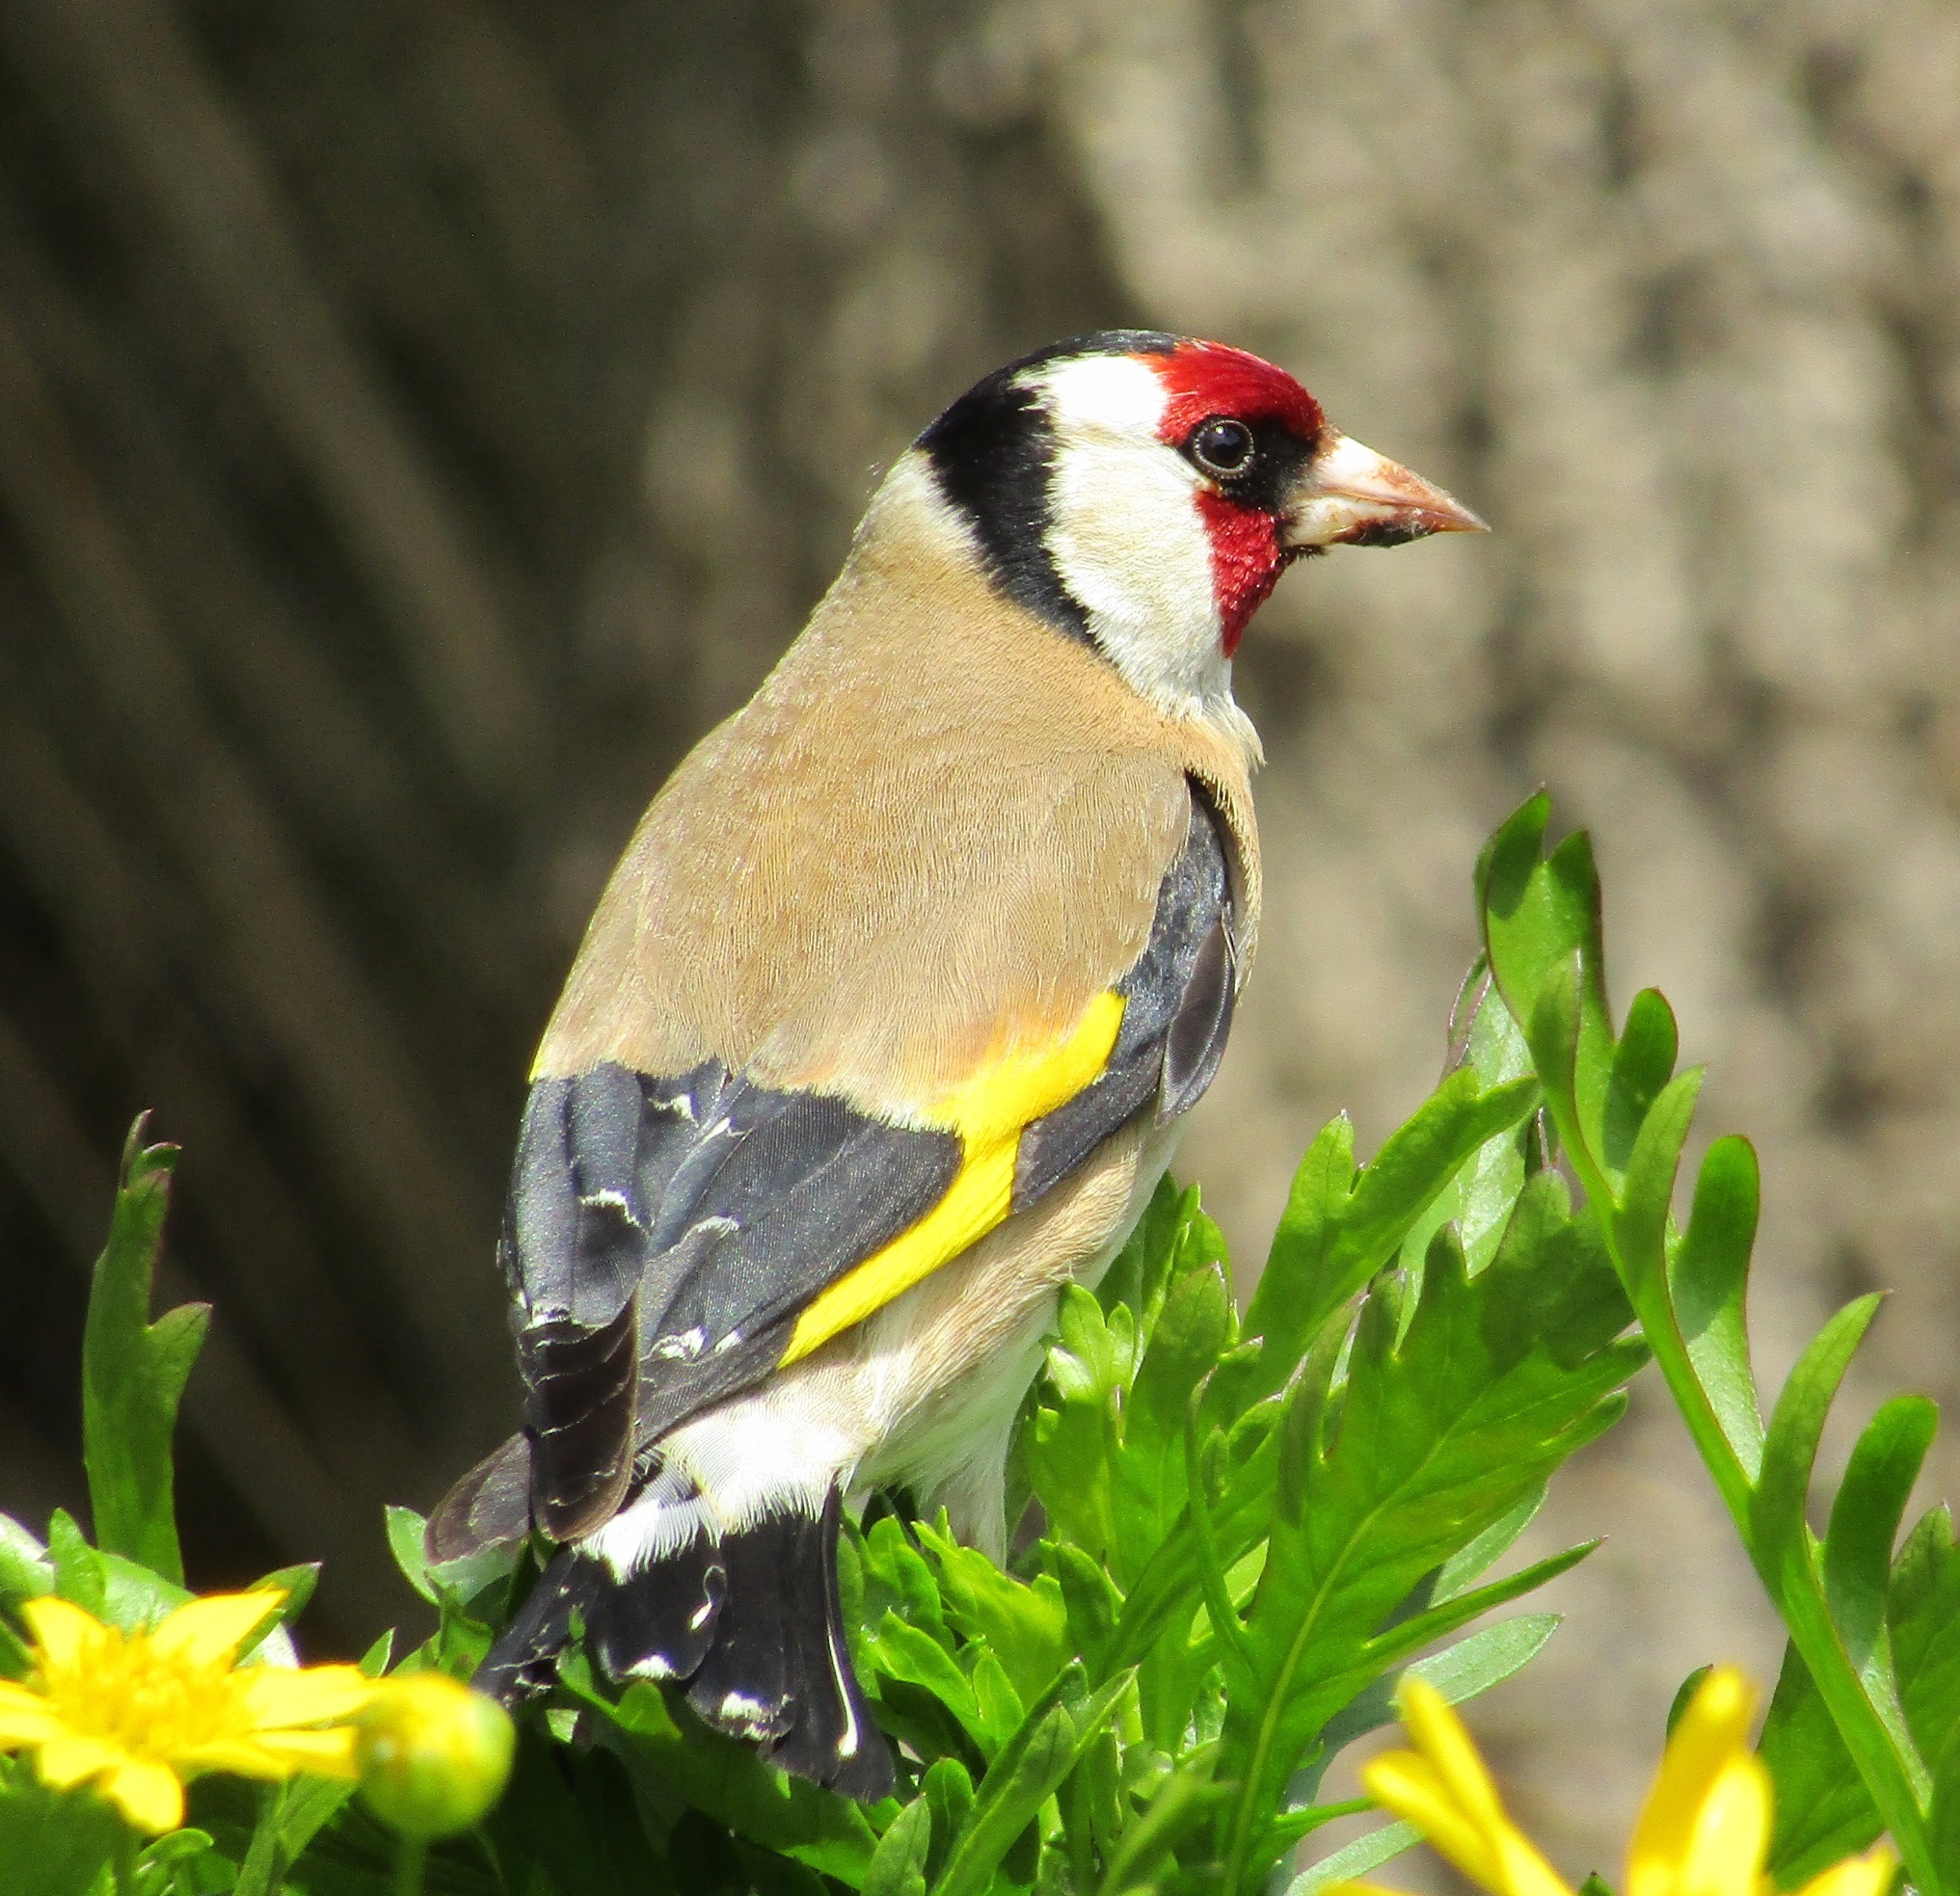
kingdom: Animalia
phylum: Chordata
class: Aves
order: Passeriformes
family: Fringillidae
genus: Carduelis
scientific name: Carduelis carduelis
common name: European goldfinch
